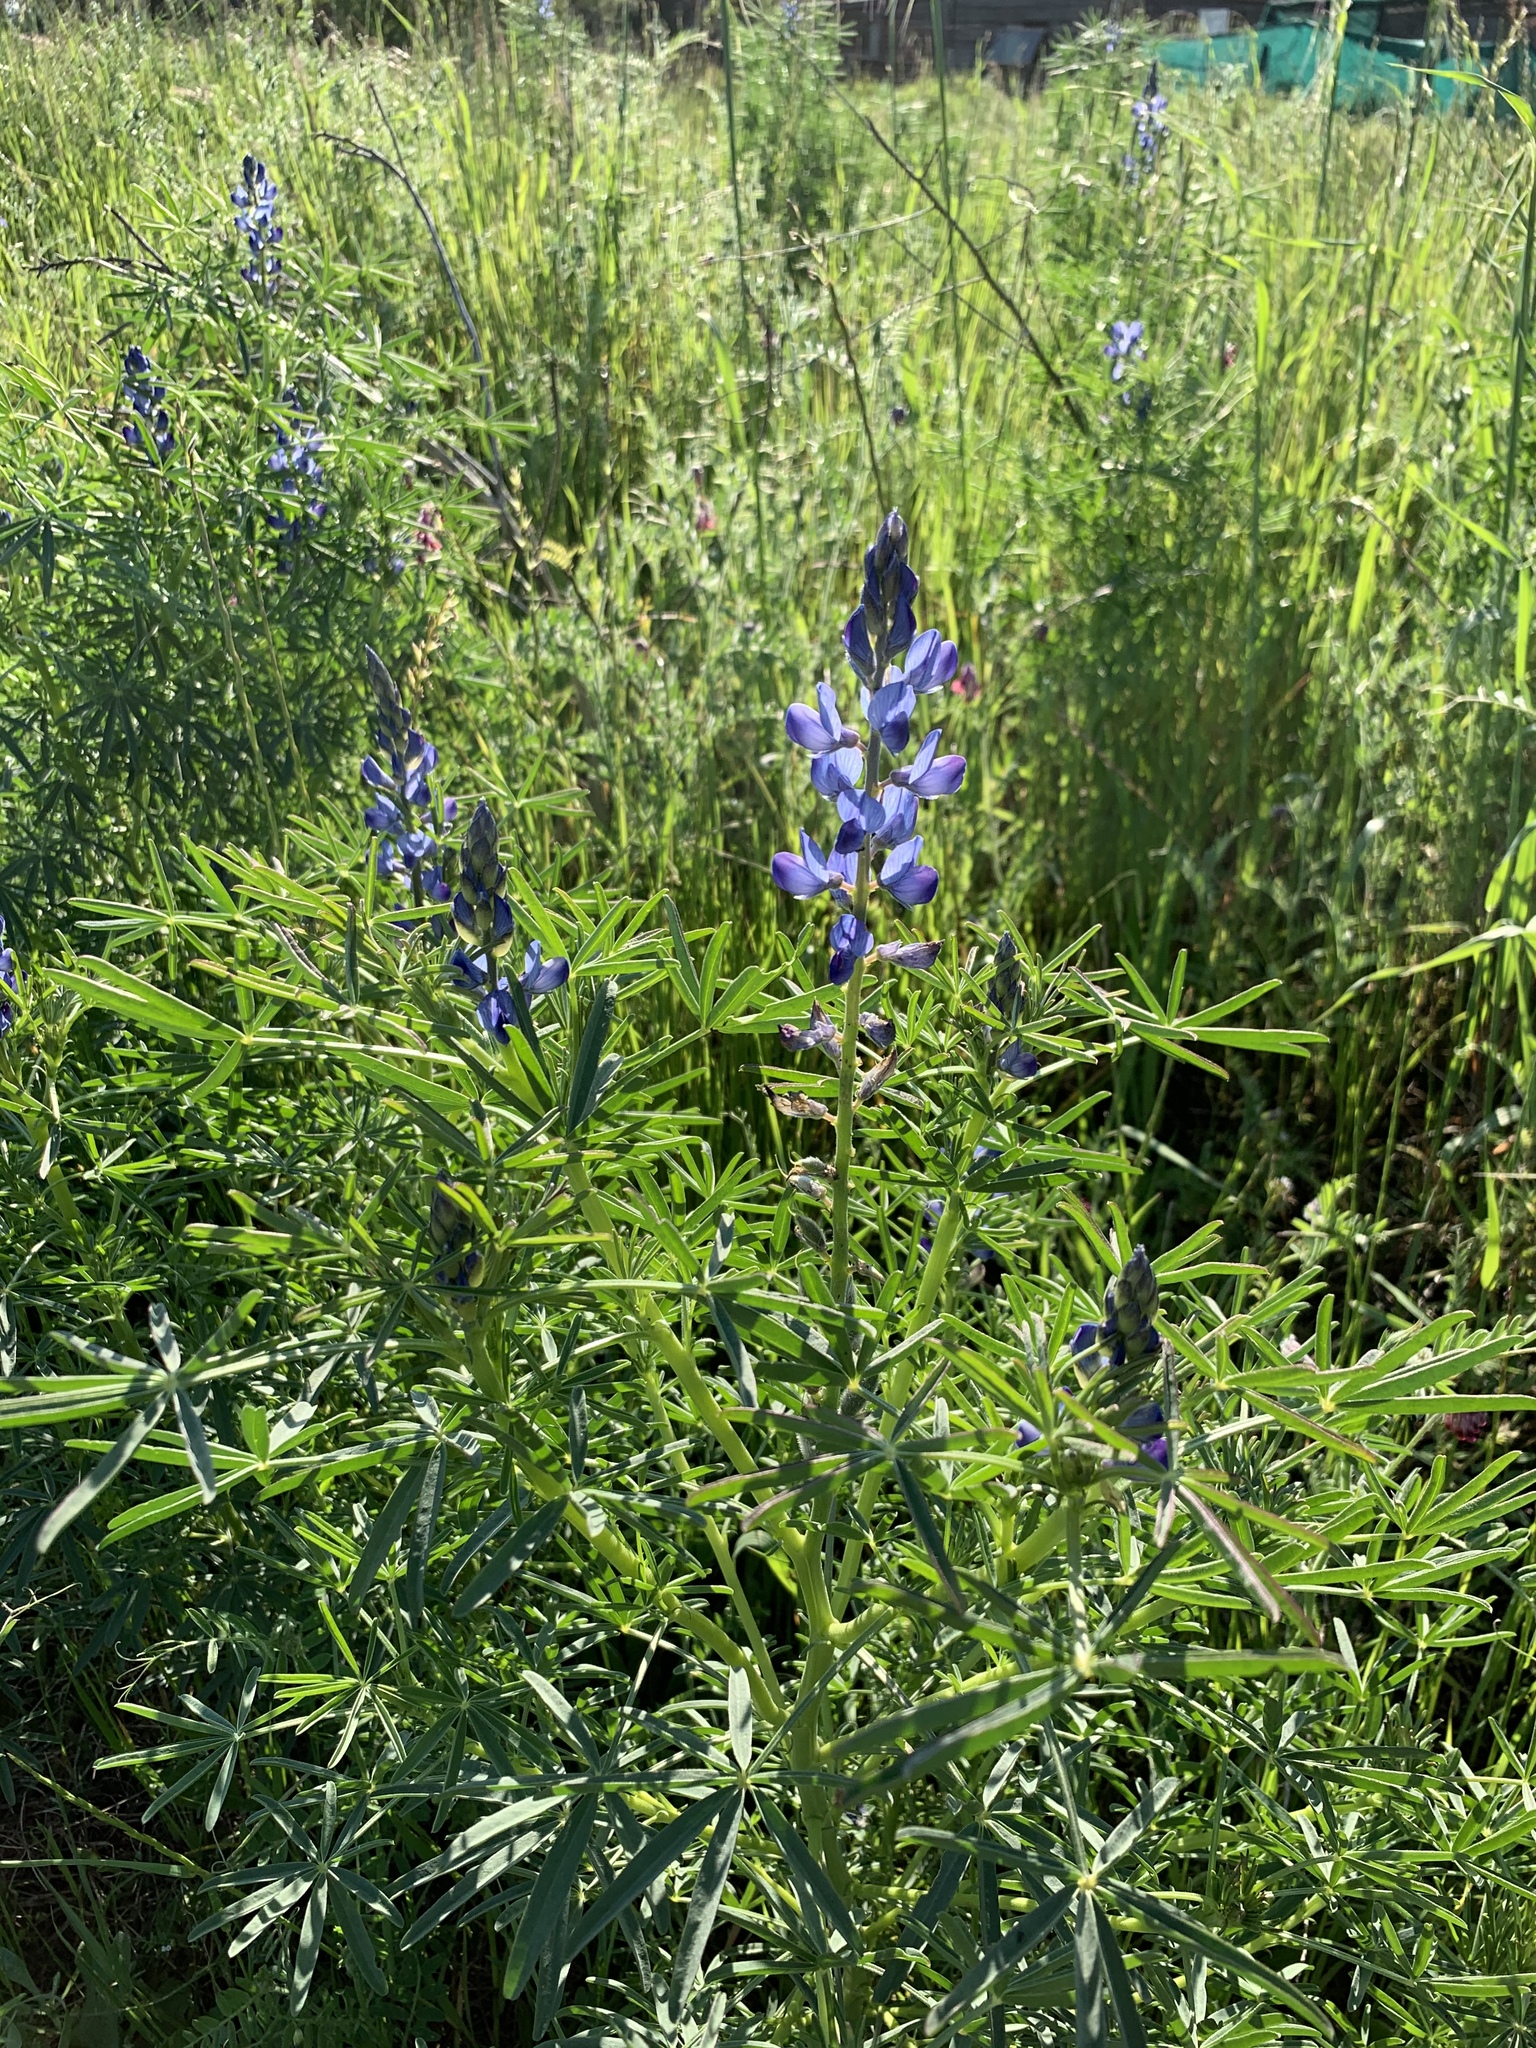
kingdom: Plantae
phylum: Tracheophyta
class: Magnoliopsida
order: Fabales
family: Fabaceae
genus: Lupinus
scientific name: Lupinus angustifolius
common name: Narrow-leaved lupin
